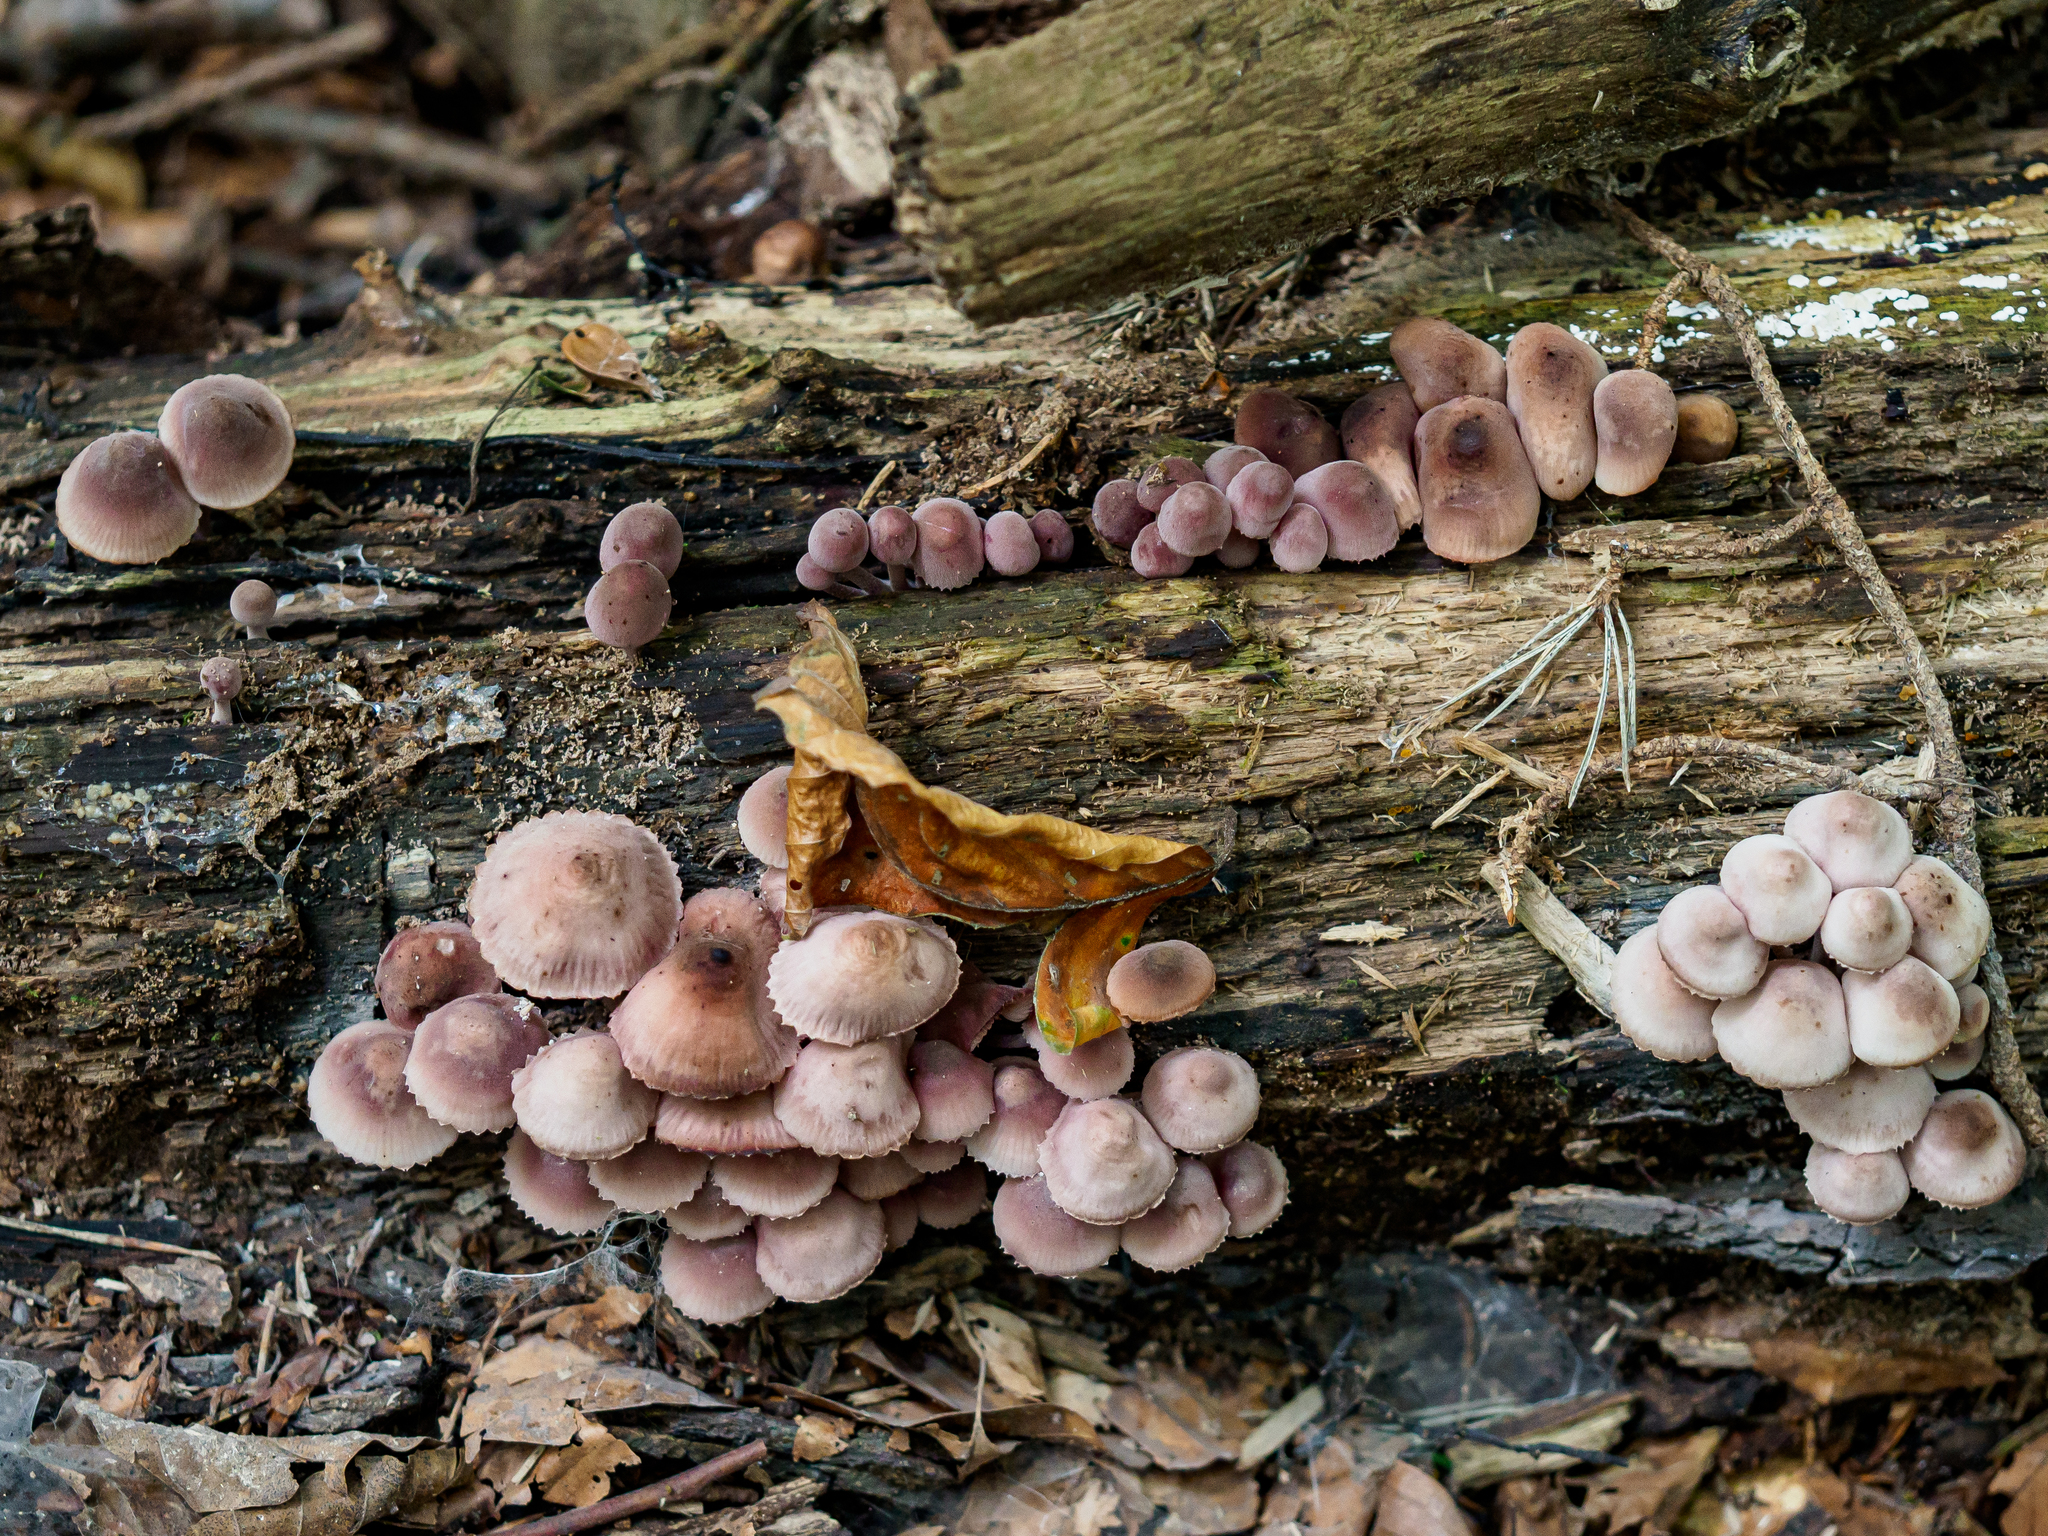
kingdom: Fungi
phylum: Basidiomycota
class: Agaricomycetes
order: Agaricales
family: Mycenaceae
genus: Mycena
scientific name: Mycena haematopus
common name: Burgundydrop bonnet
